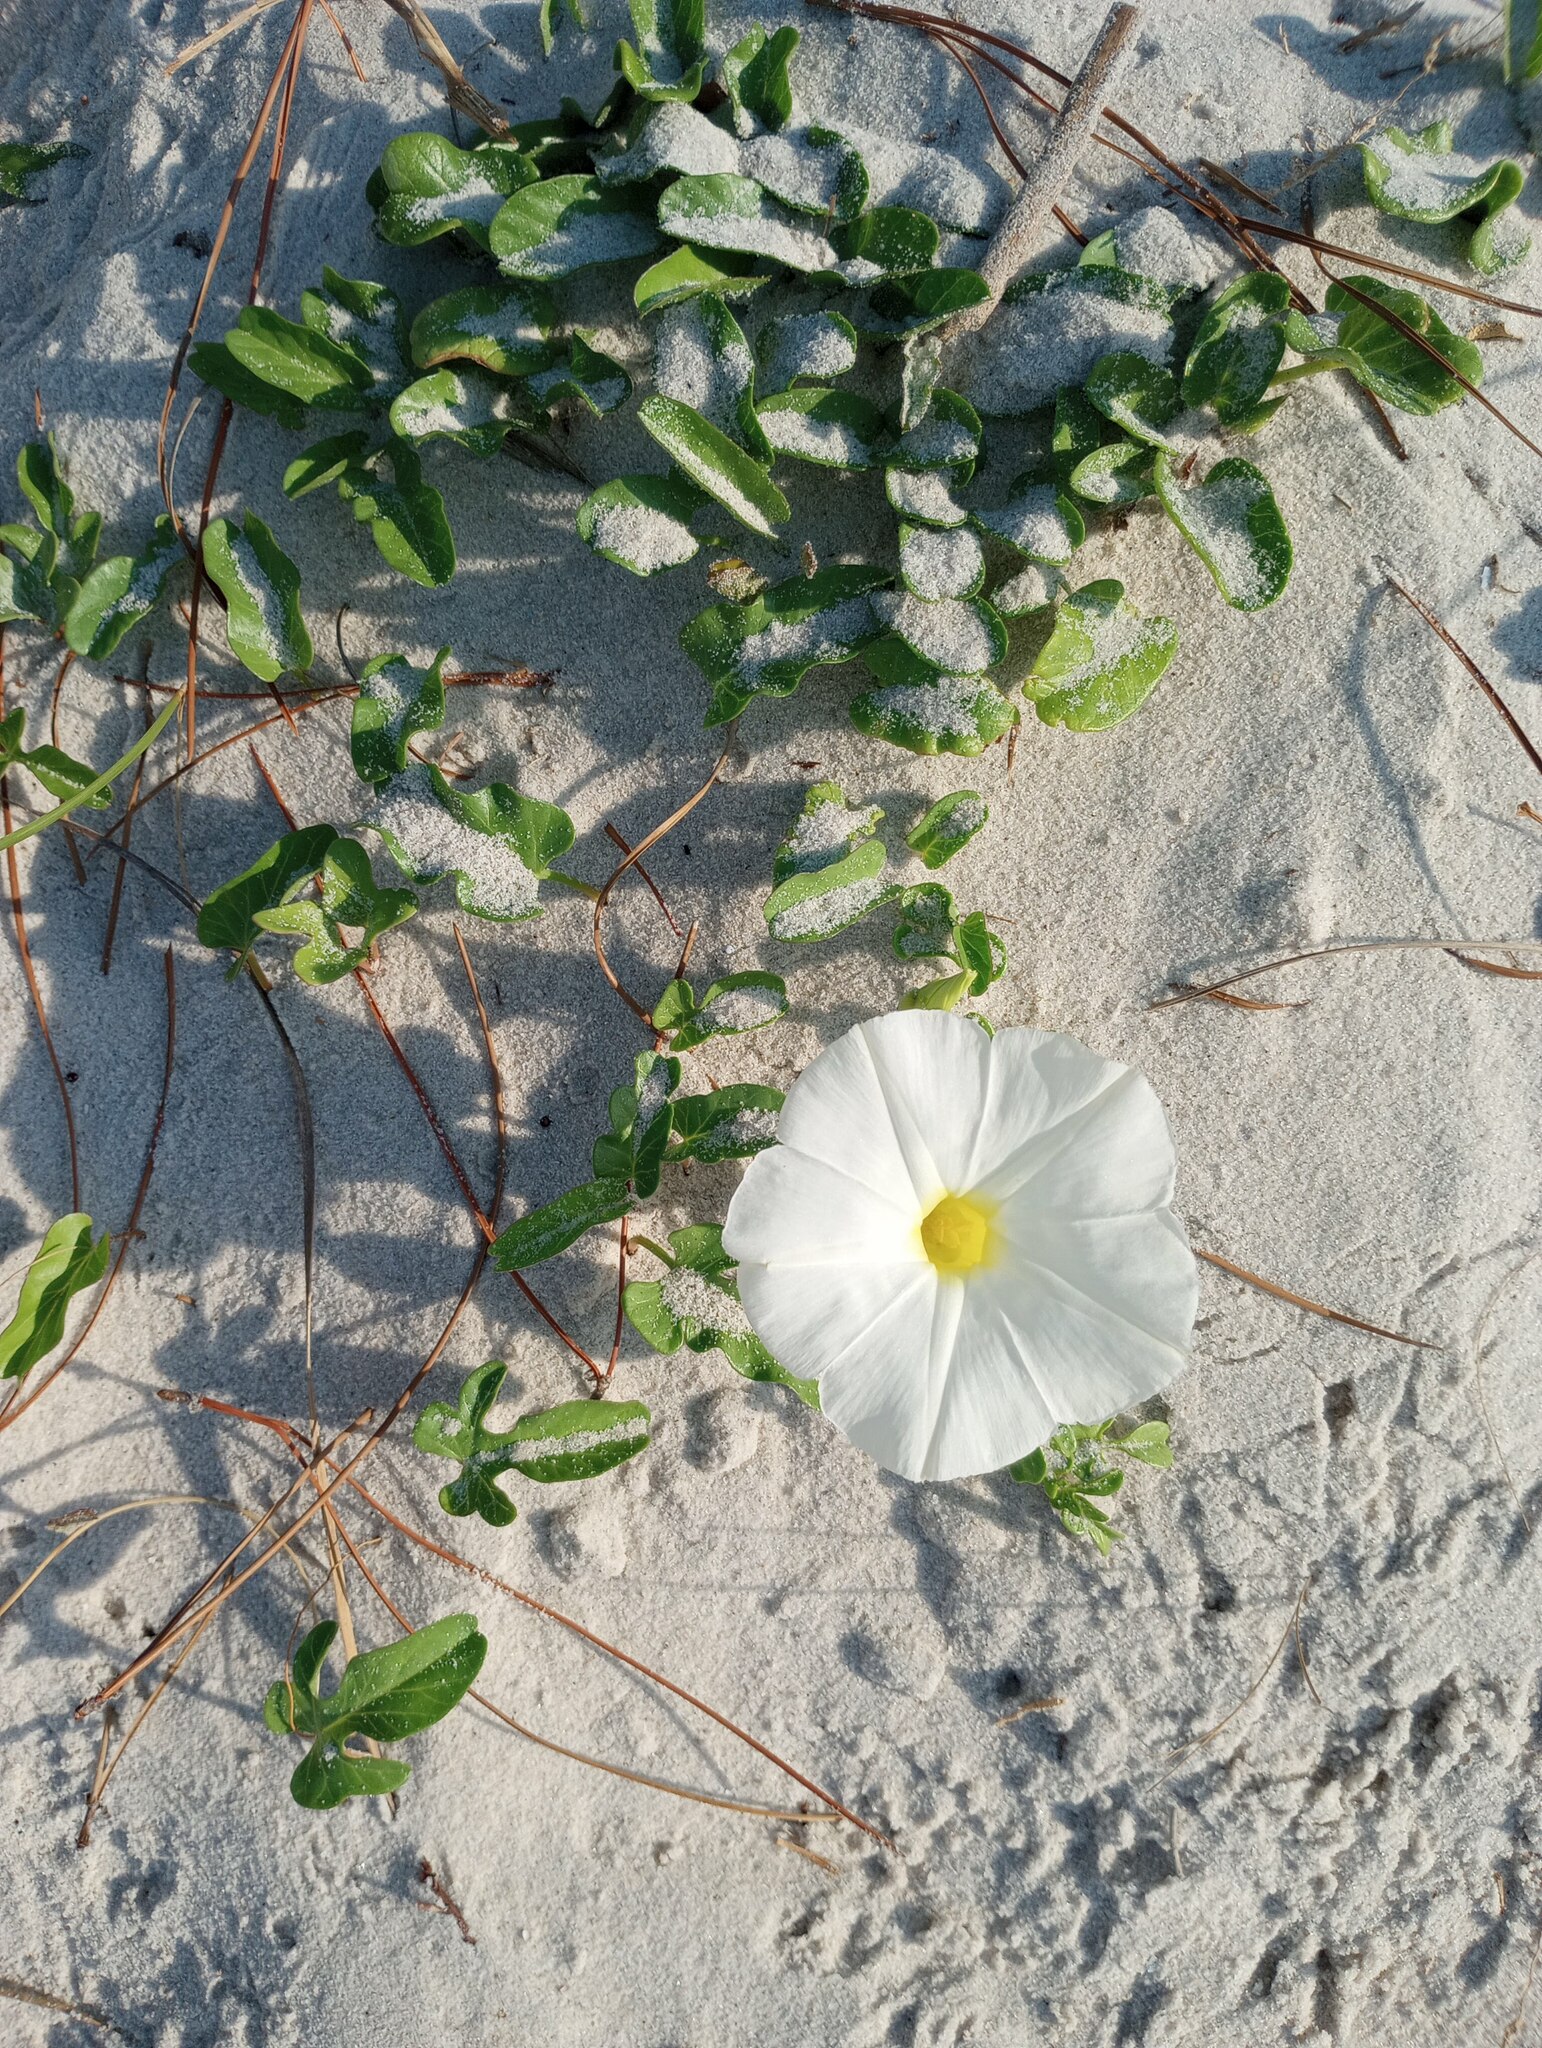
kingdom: Plantae
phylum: Tracheophyta
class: Magnoliopsida
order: Solanales
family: Convolvulaceae
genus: Ipomoea
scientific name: Ipomoea imperati
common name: Fiddle-leaf morning-glory
